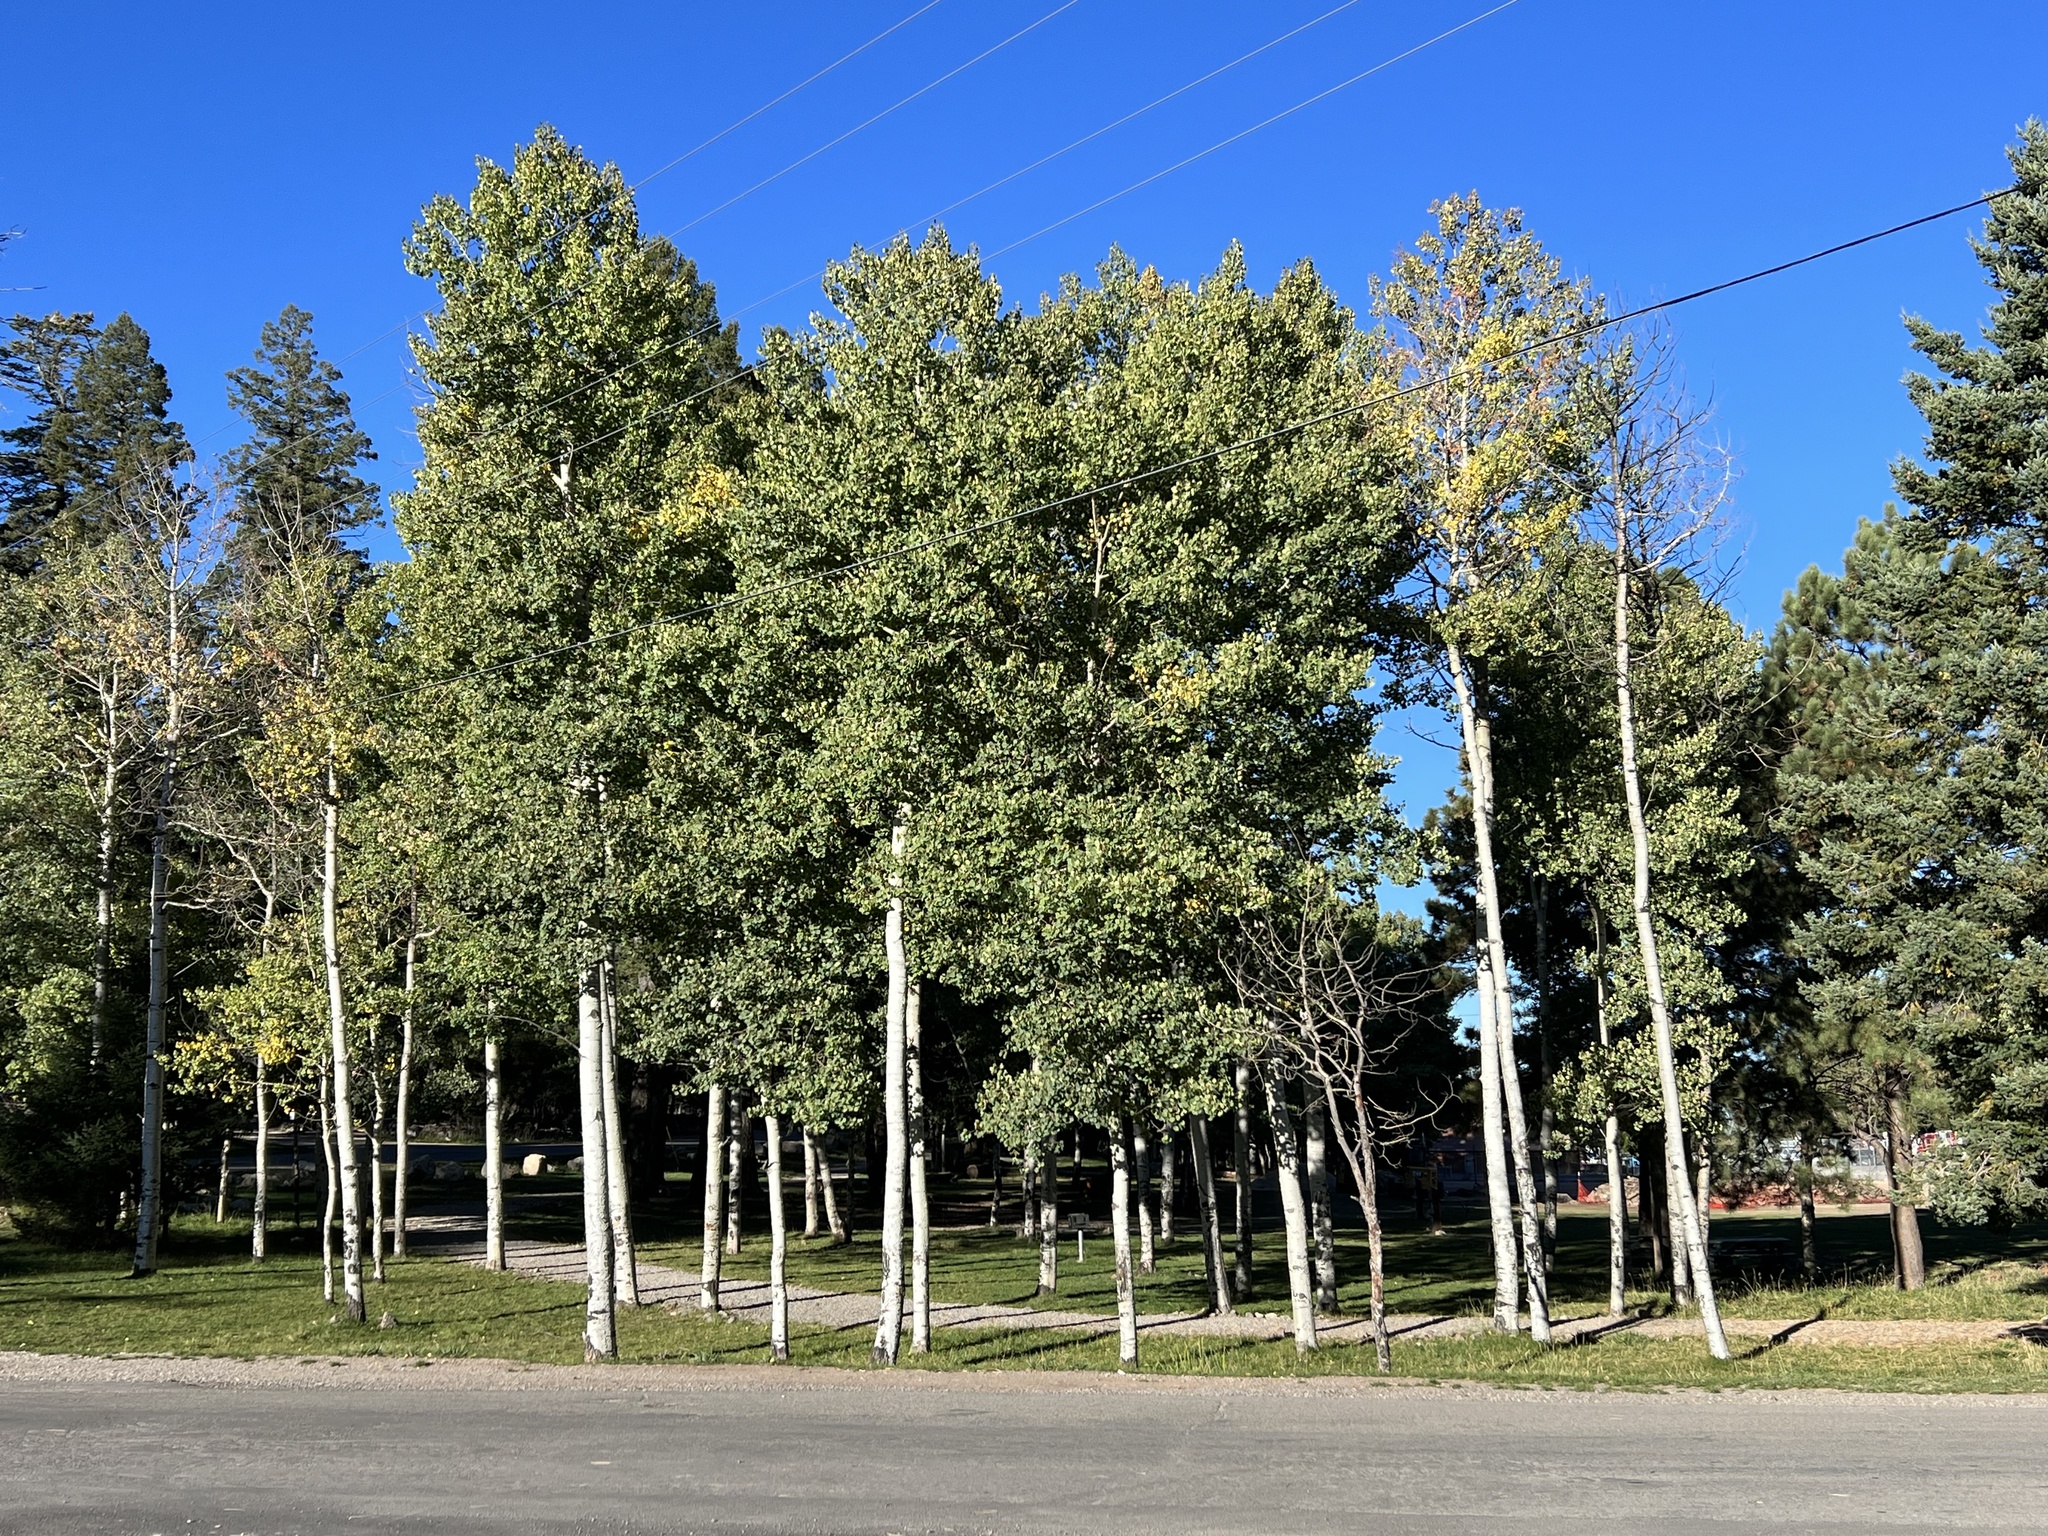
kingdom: Plantae
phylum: Tracheophyta
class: Magnoliopsida
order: Malpighiales
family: Salicaceae
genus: Populus
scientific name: Populus tremuloides
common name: Quaking aspen
